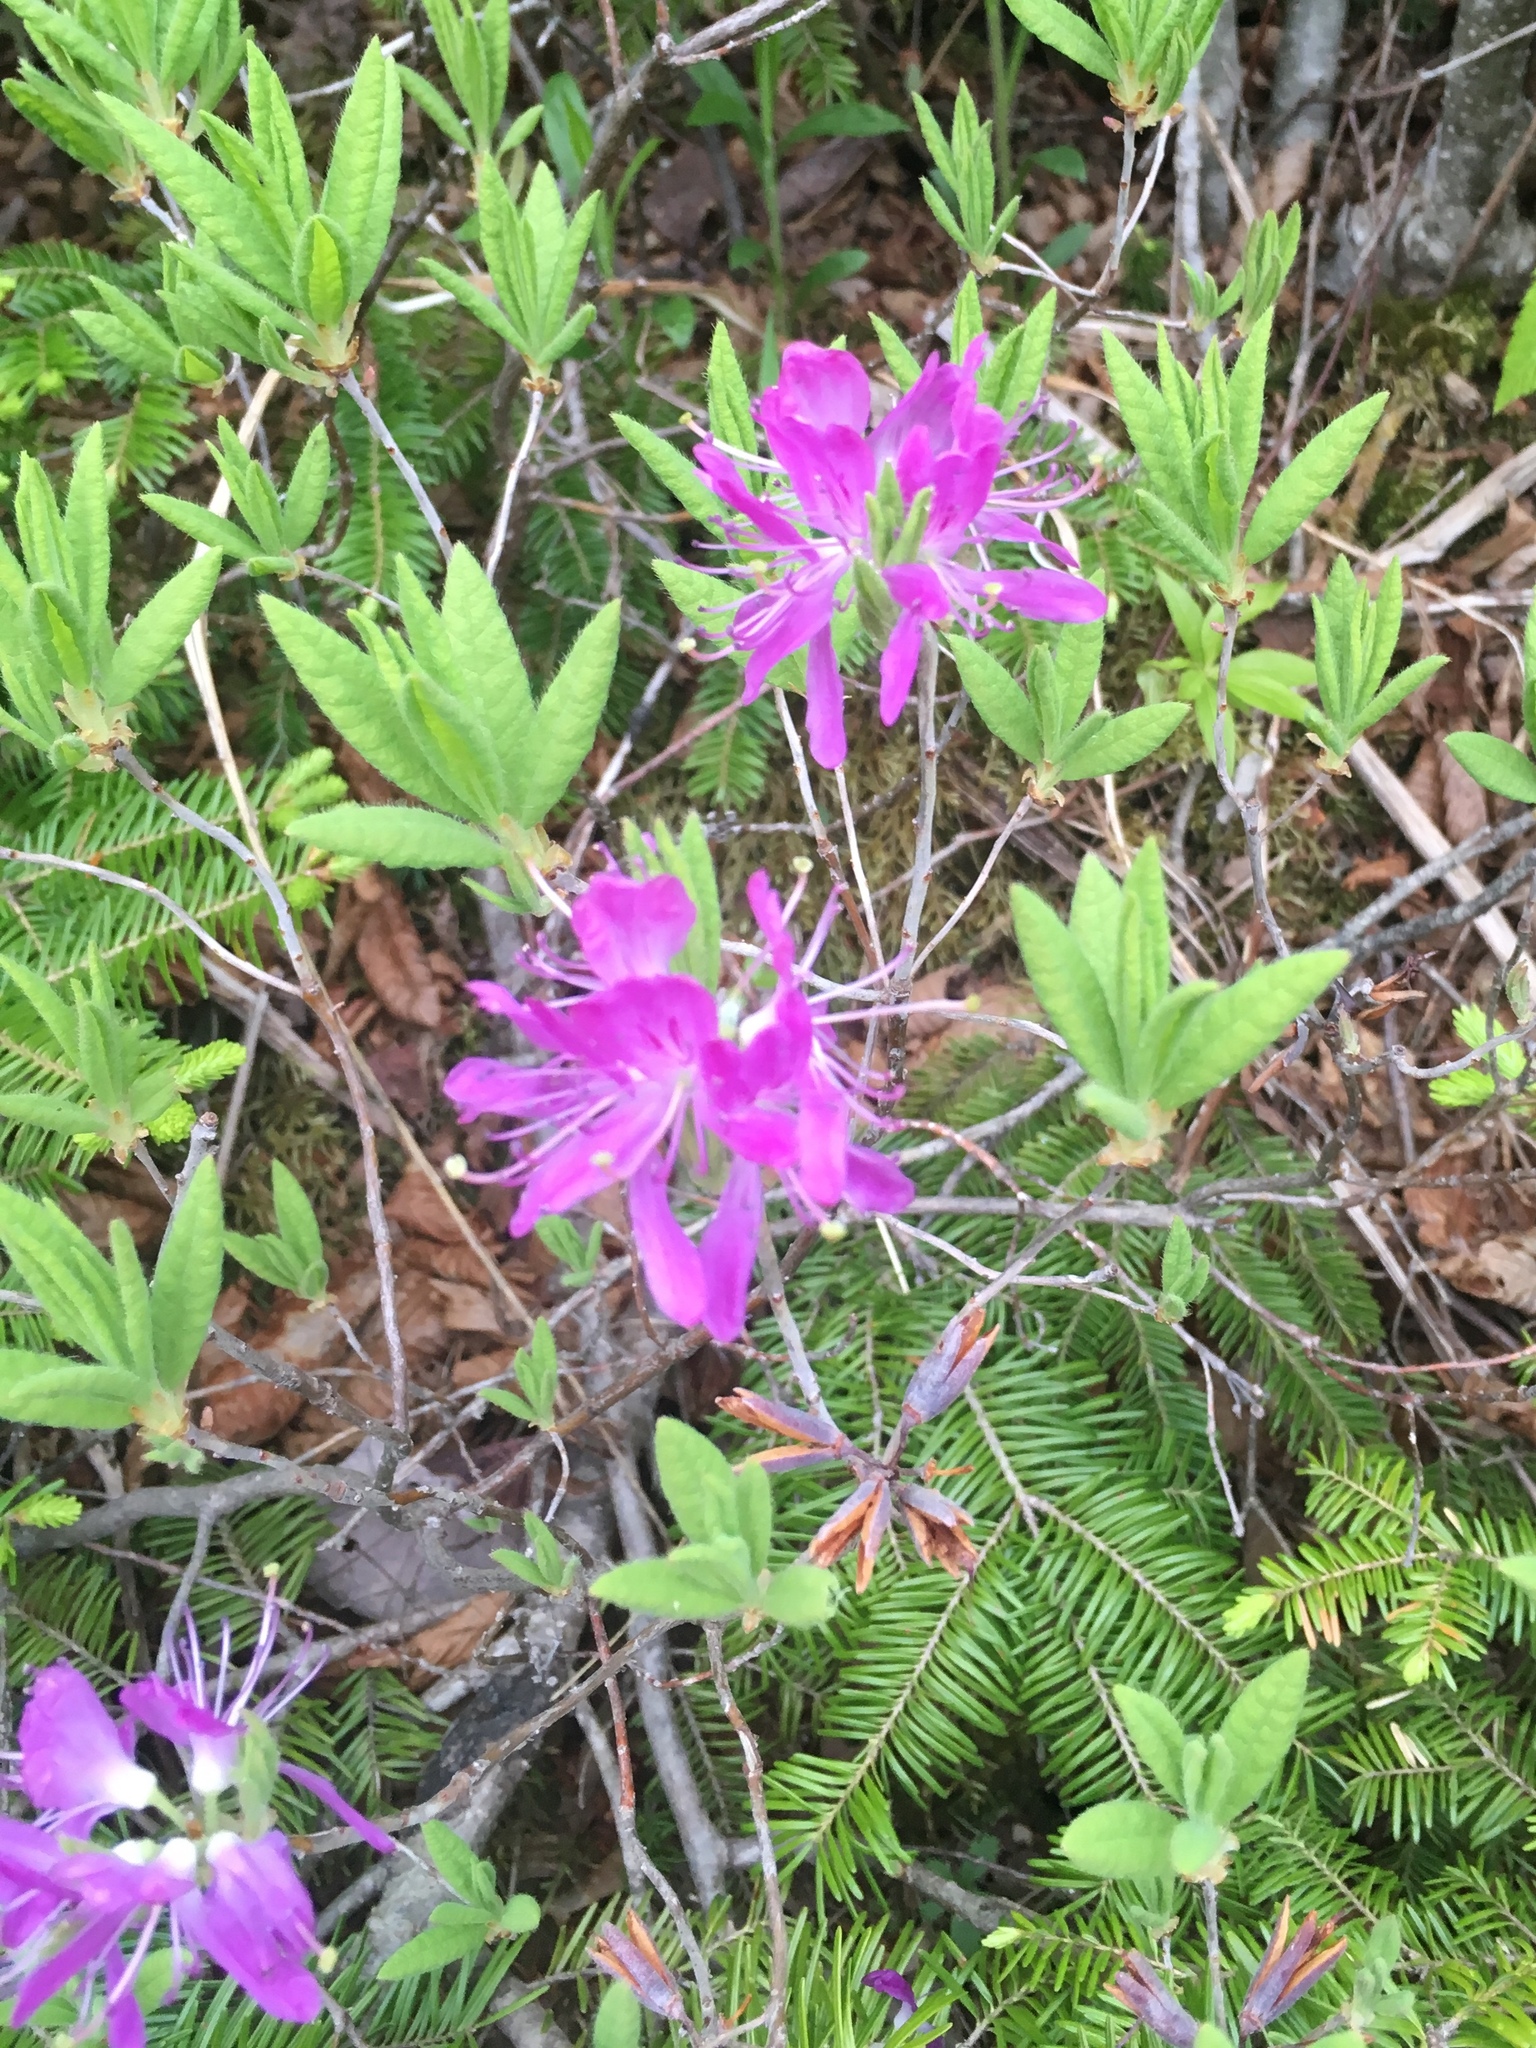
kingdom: Plantae
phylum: Tracheophyta
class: Magnoliopsida
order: Ericales
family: Ericaceae
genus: Rhododendron
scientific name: Rhododendron canadense
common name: Rhodora
